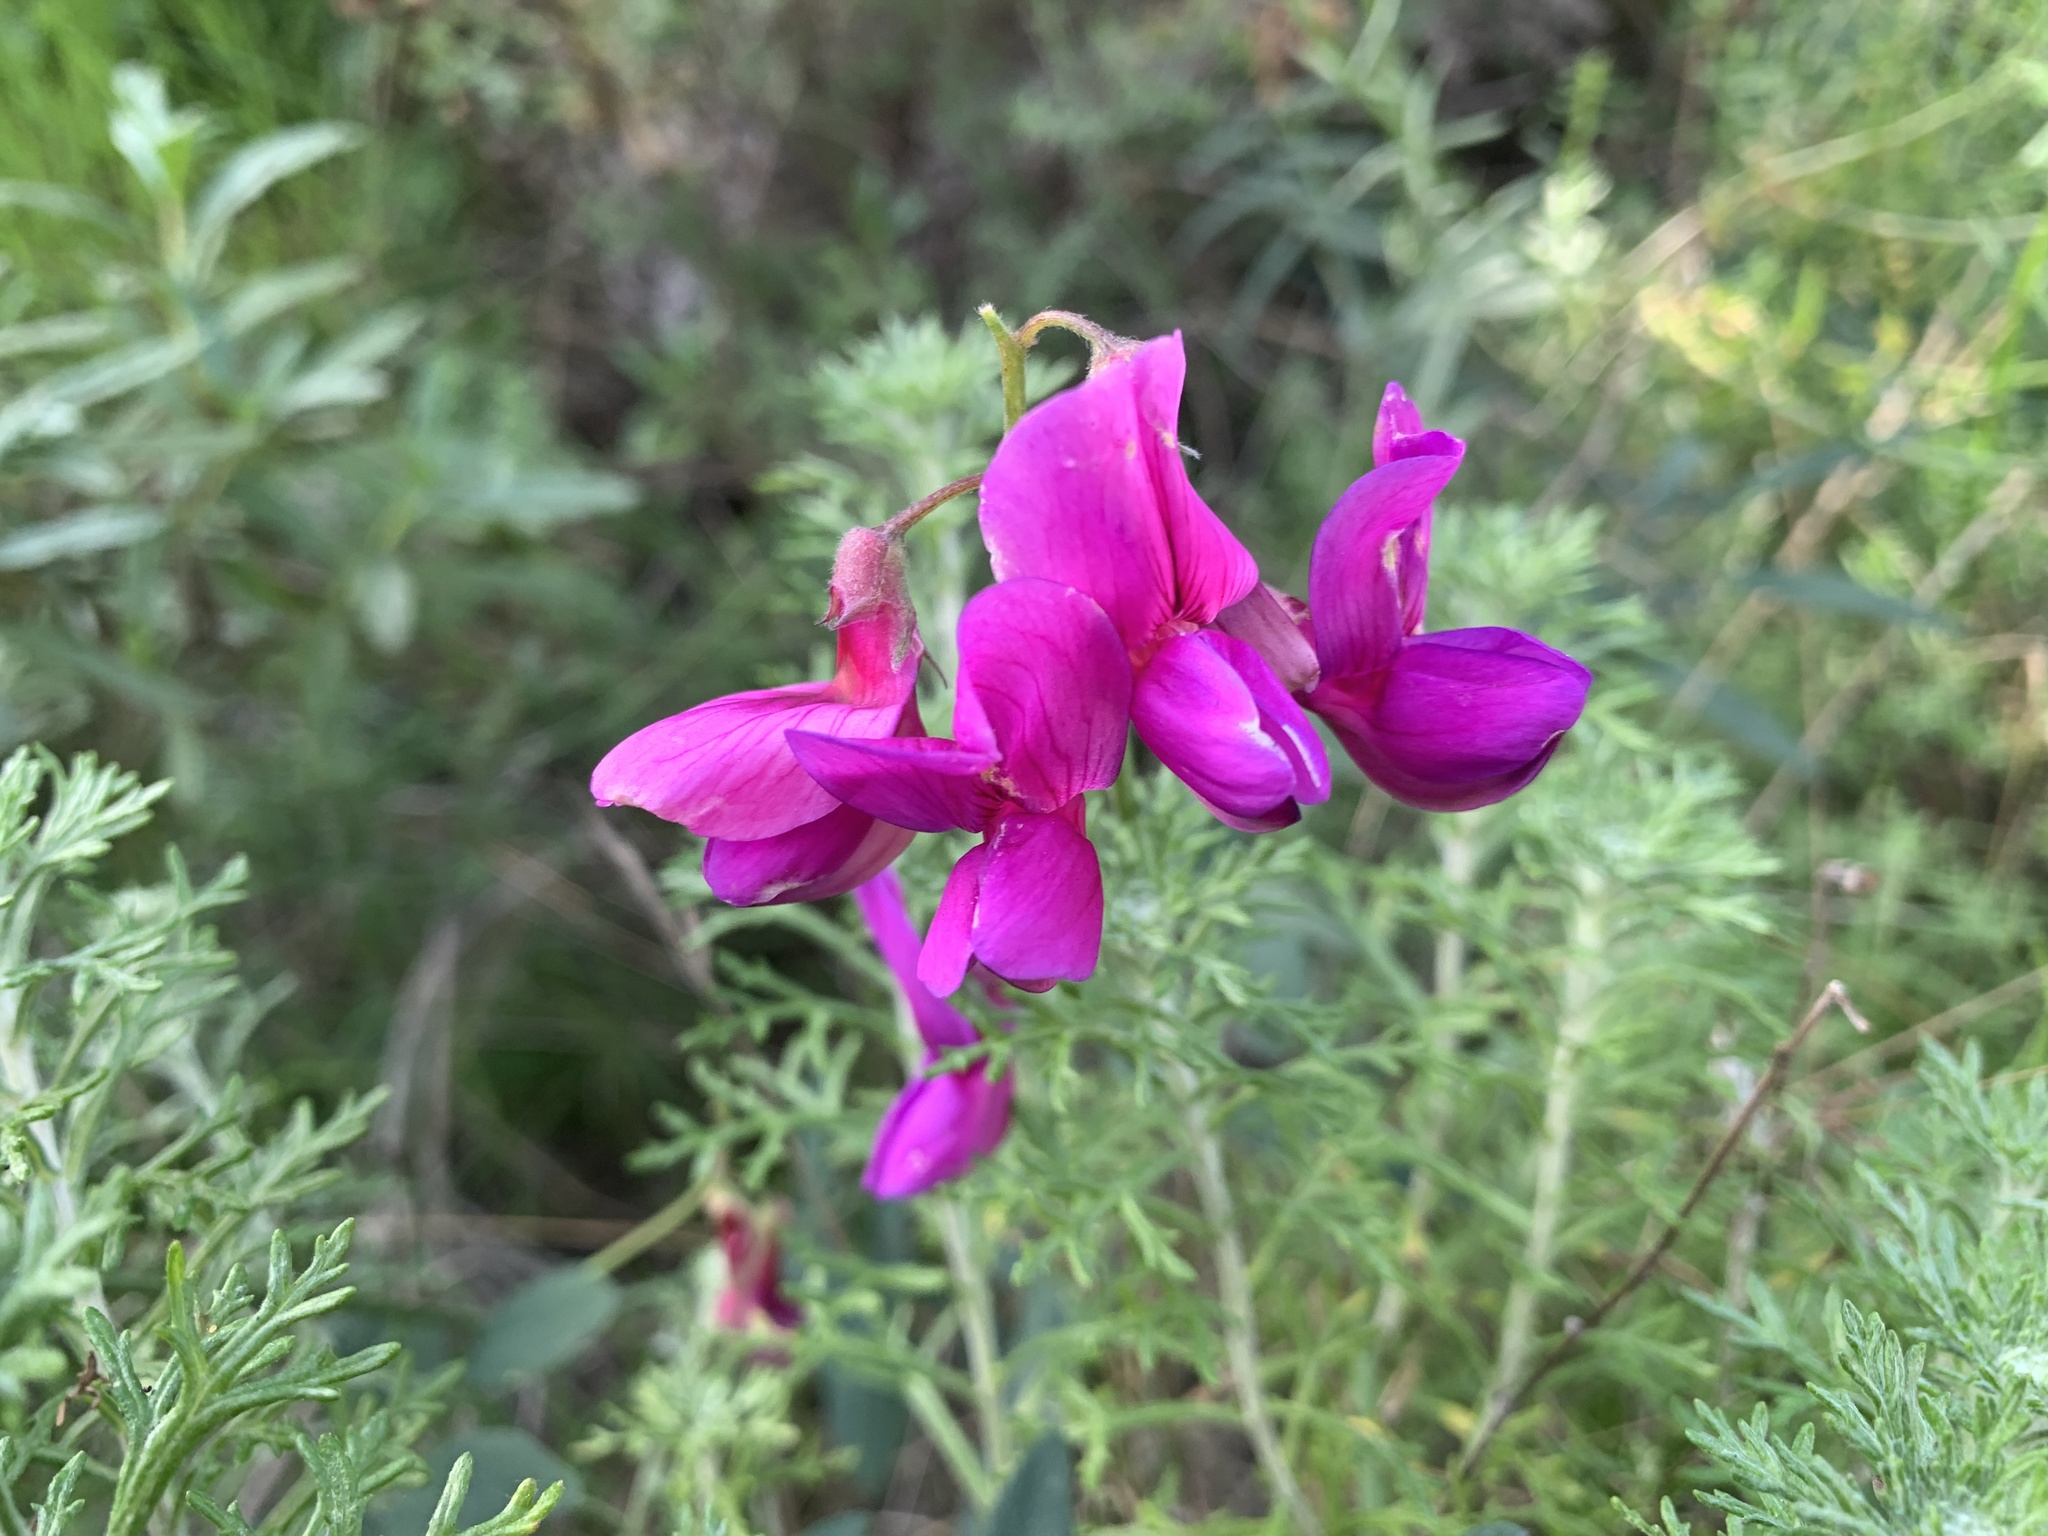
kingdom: Plantae
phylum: Tracheophyta
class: Magnoliopsida
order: Fabales
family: Fabaceae
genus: Lathyrus
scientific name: Lathyrus vestitus
